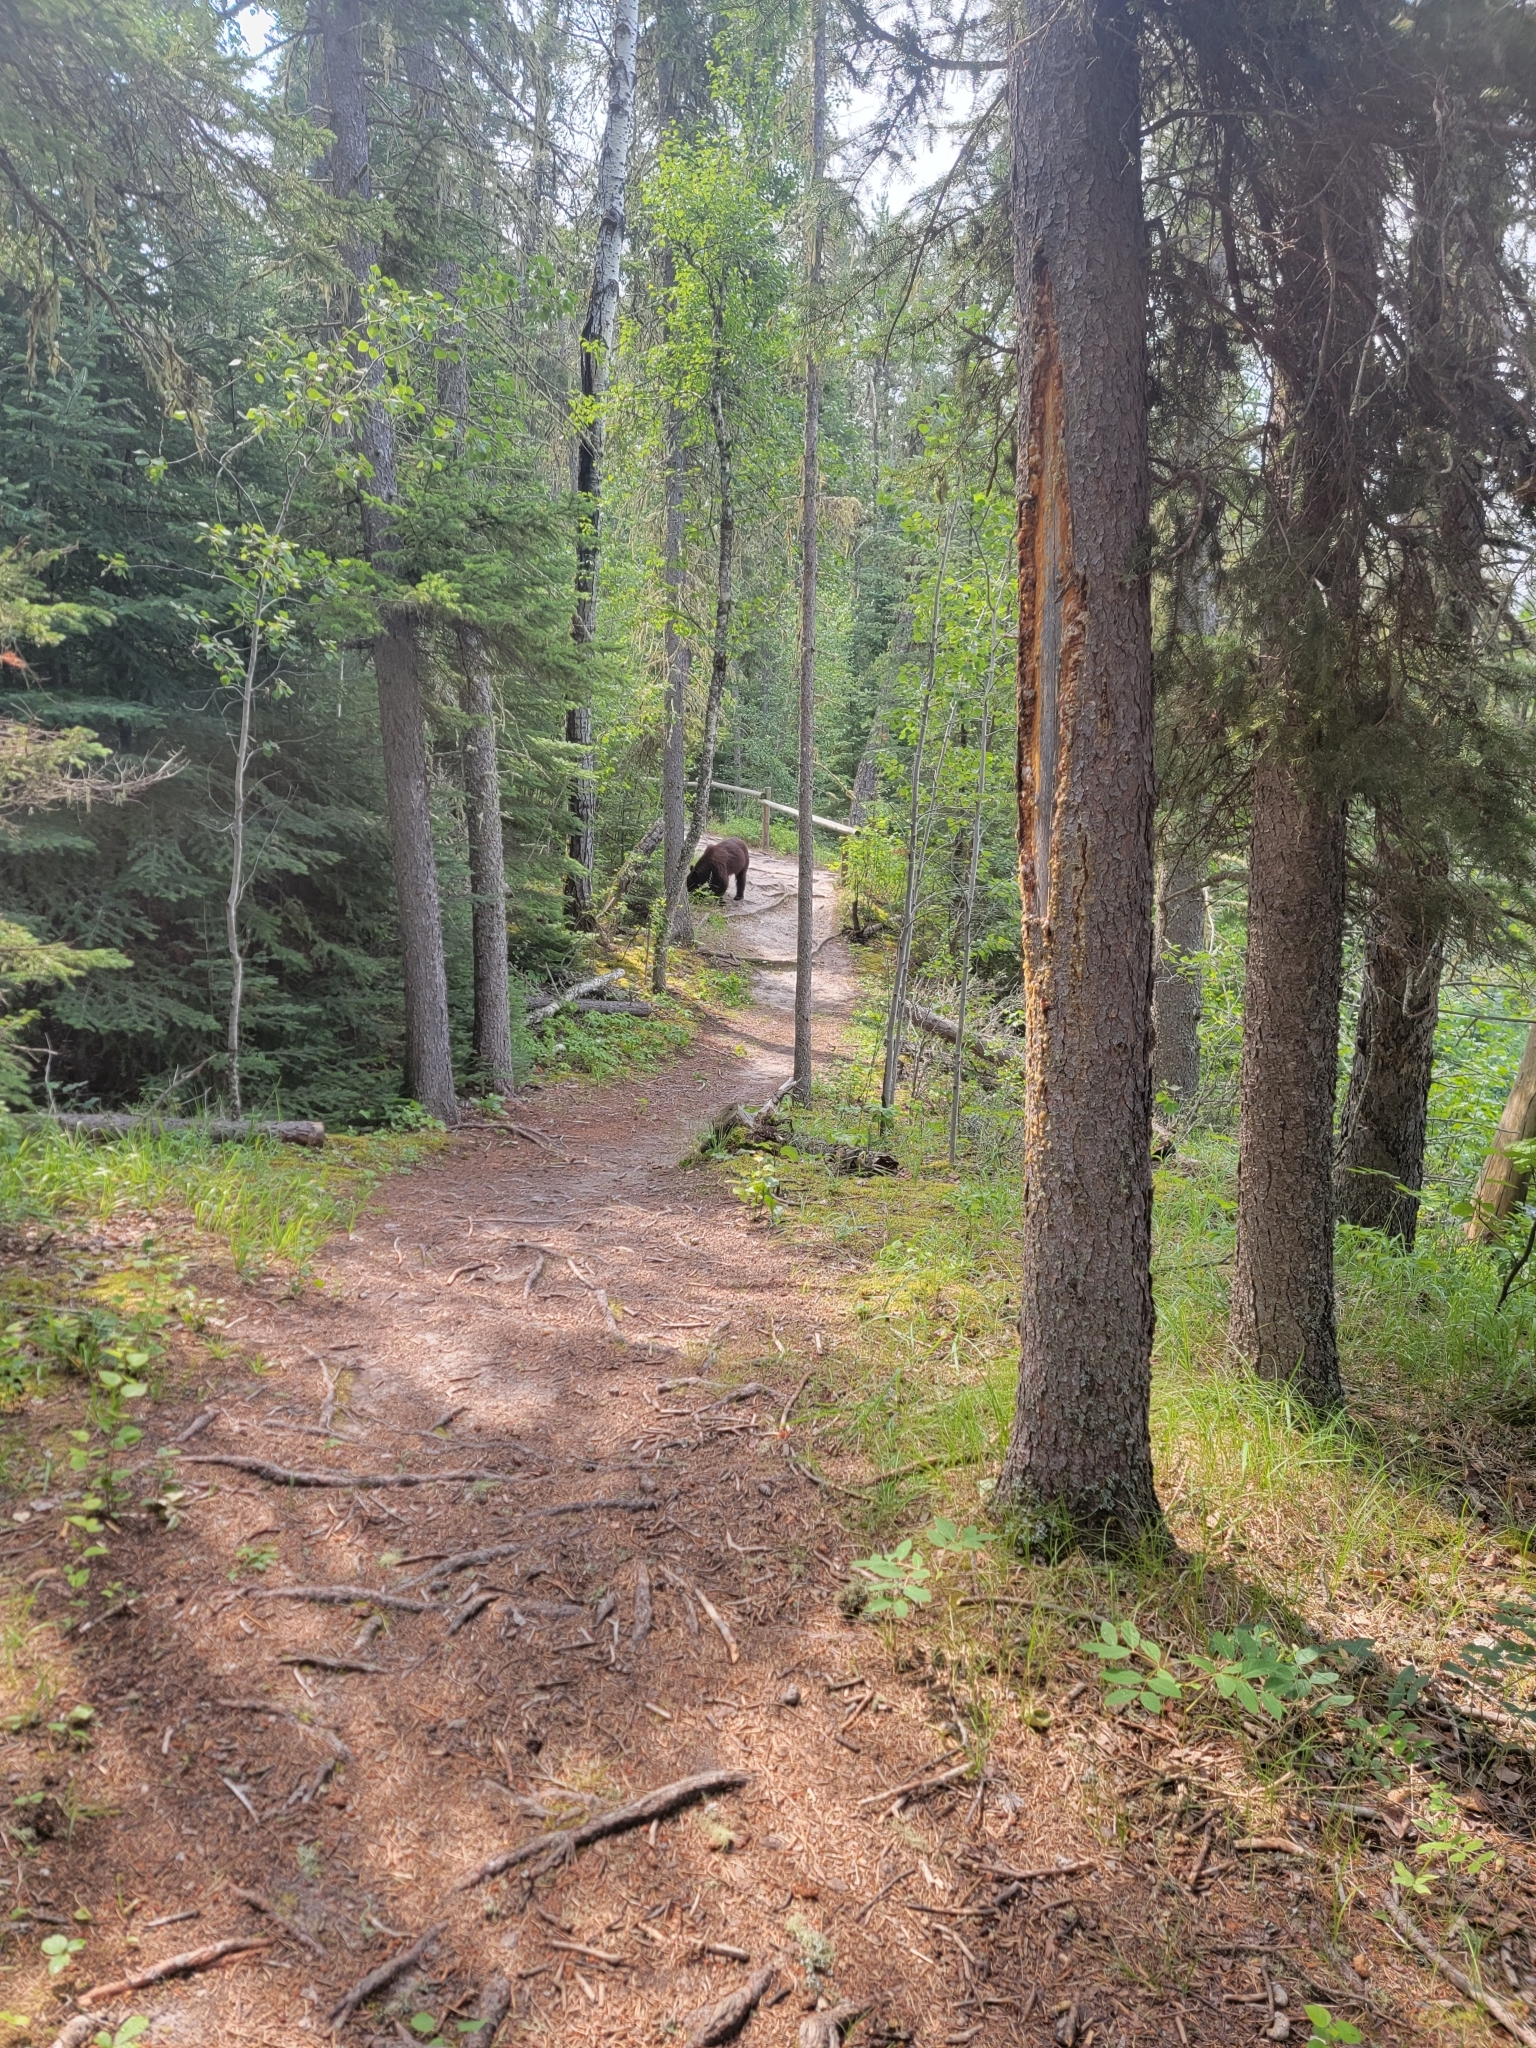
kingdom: Animalia
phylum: Chordata
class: Mammalia
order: Carnivora
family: Ursidae
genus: Ursus
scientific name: Ursus americanus
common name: American black bear
